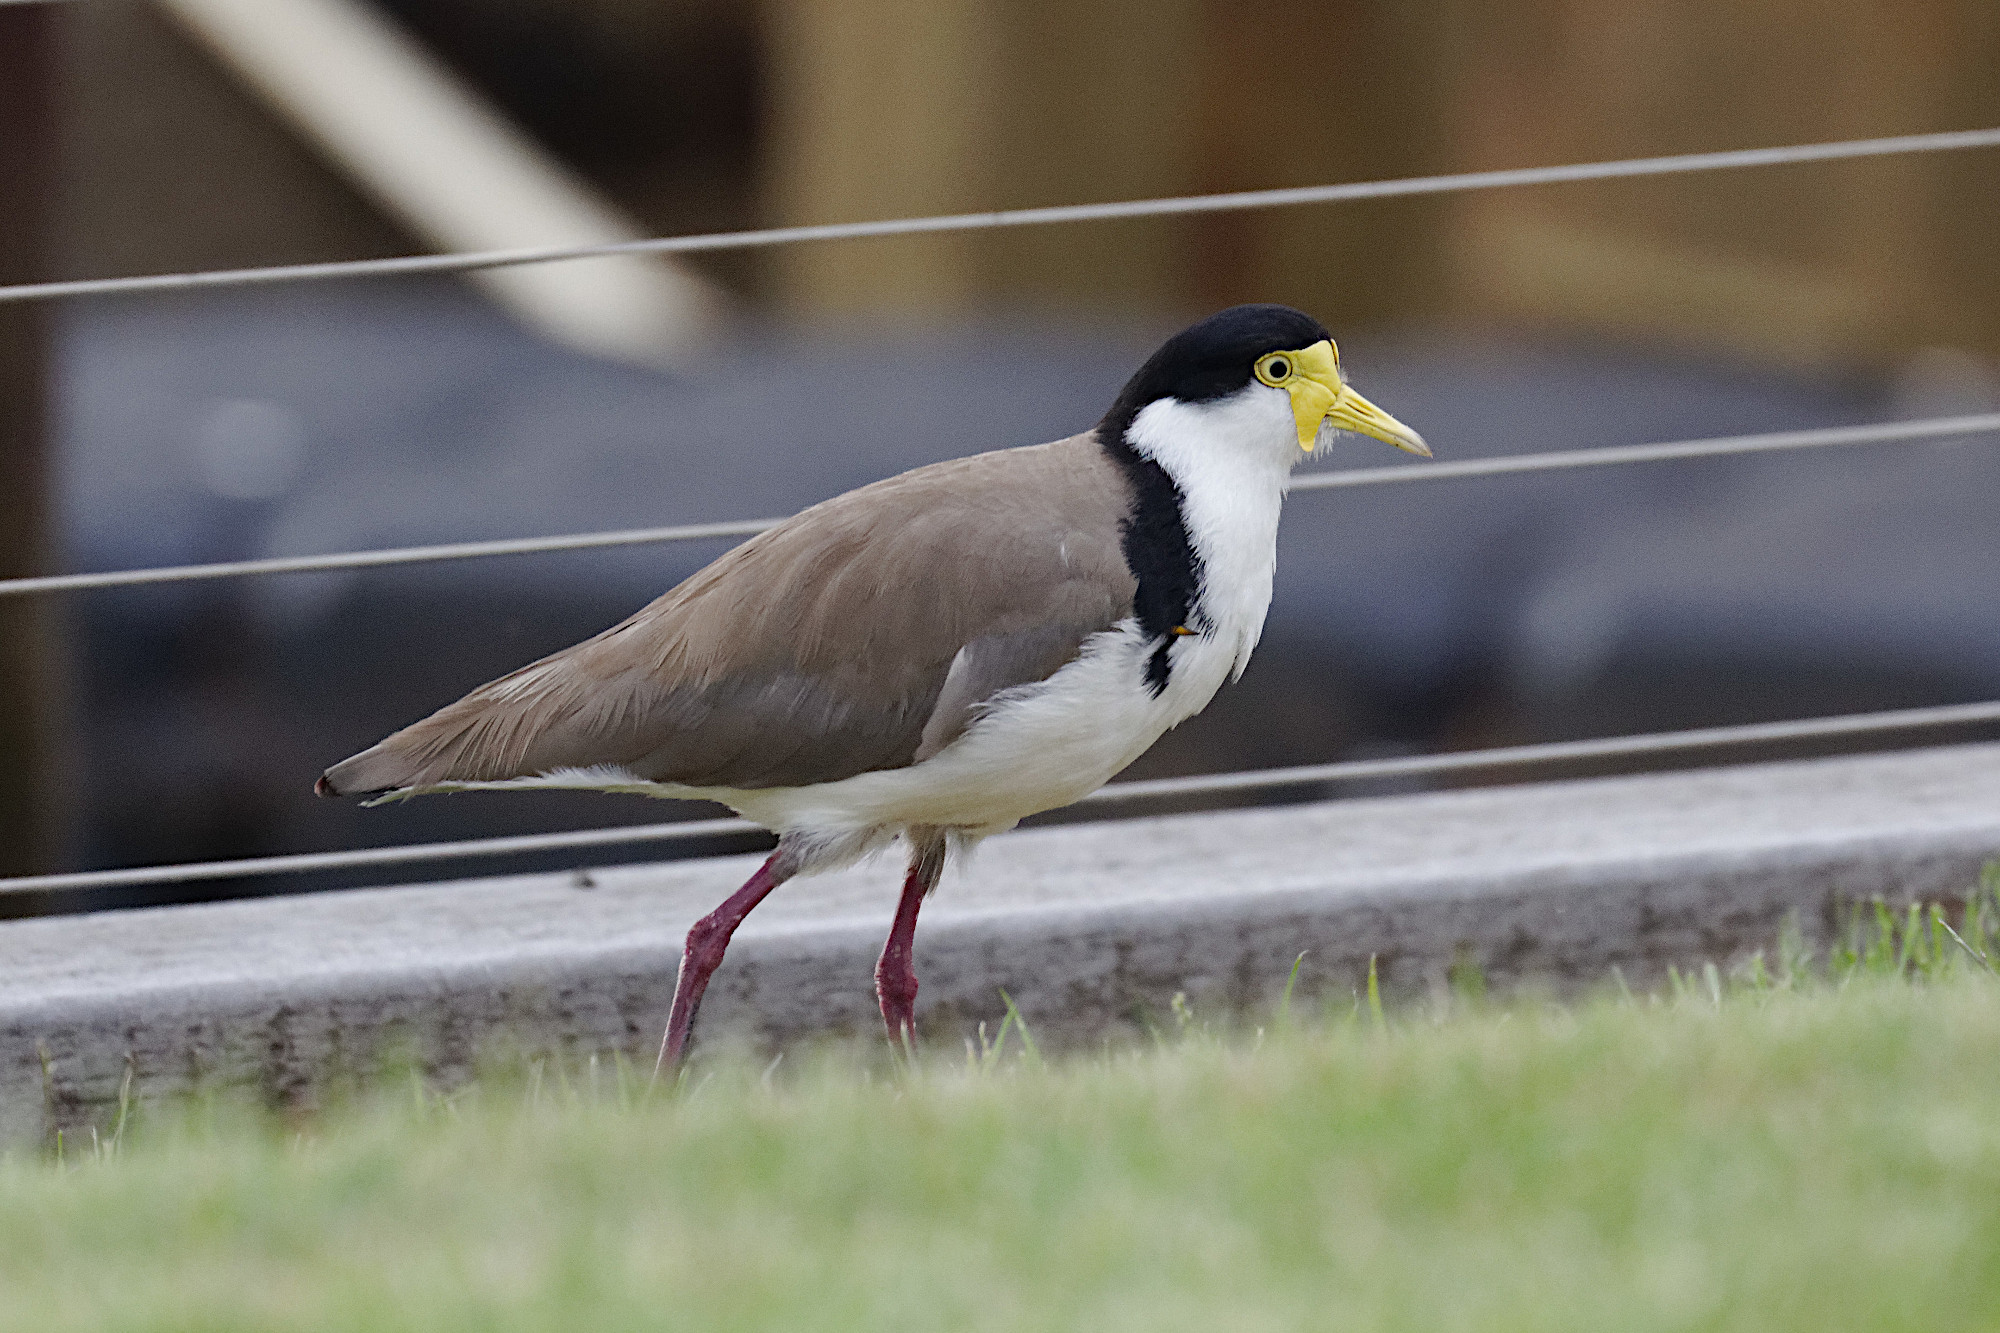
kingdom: Animalia
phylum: Chordata
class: Aves
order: Charadriiformes
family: Charadriidae
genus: Vanellus
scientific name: Vanellus miles
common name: Masked lapwing
